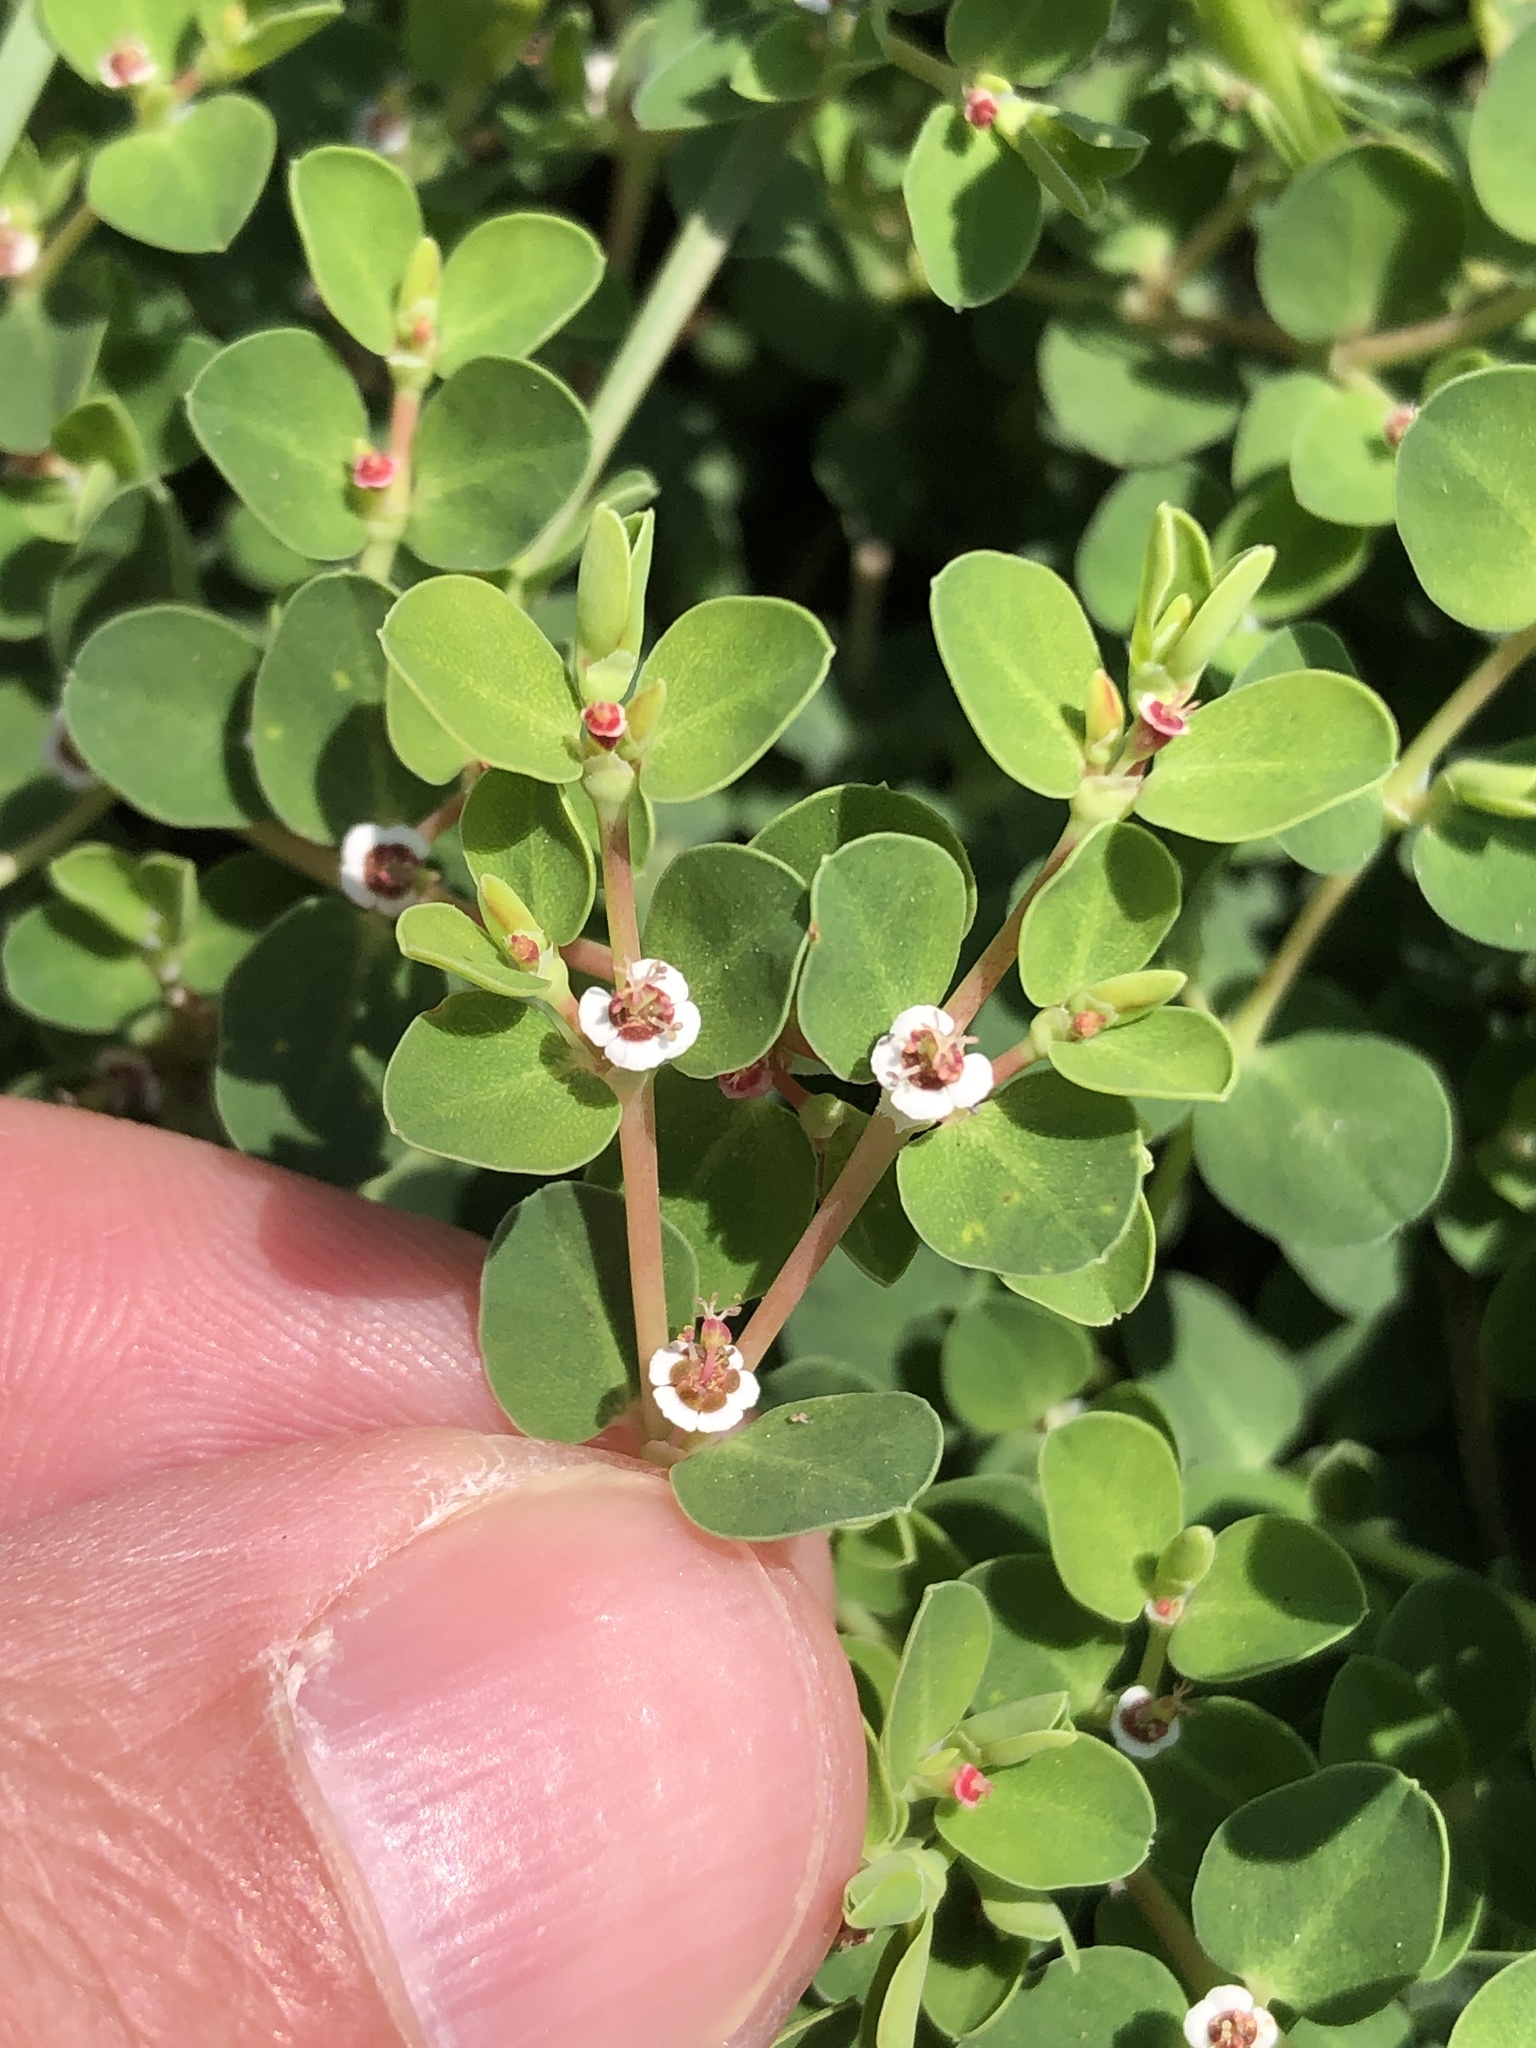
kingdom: Plantae
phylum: Tracheophyta
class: Magnoliopsida
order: Malpighiales
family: Euphorbiaceae
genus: Euphorbia
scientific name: Euphorbia albomarginata
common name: Whitemargin sandmat
